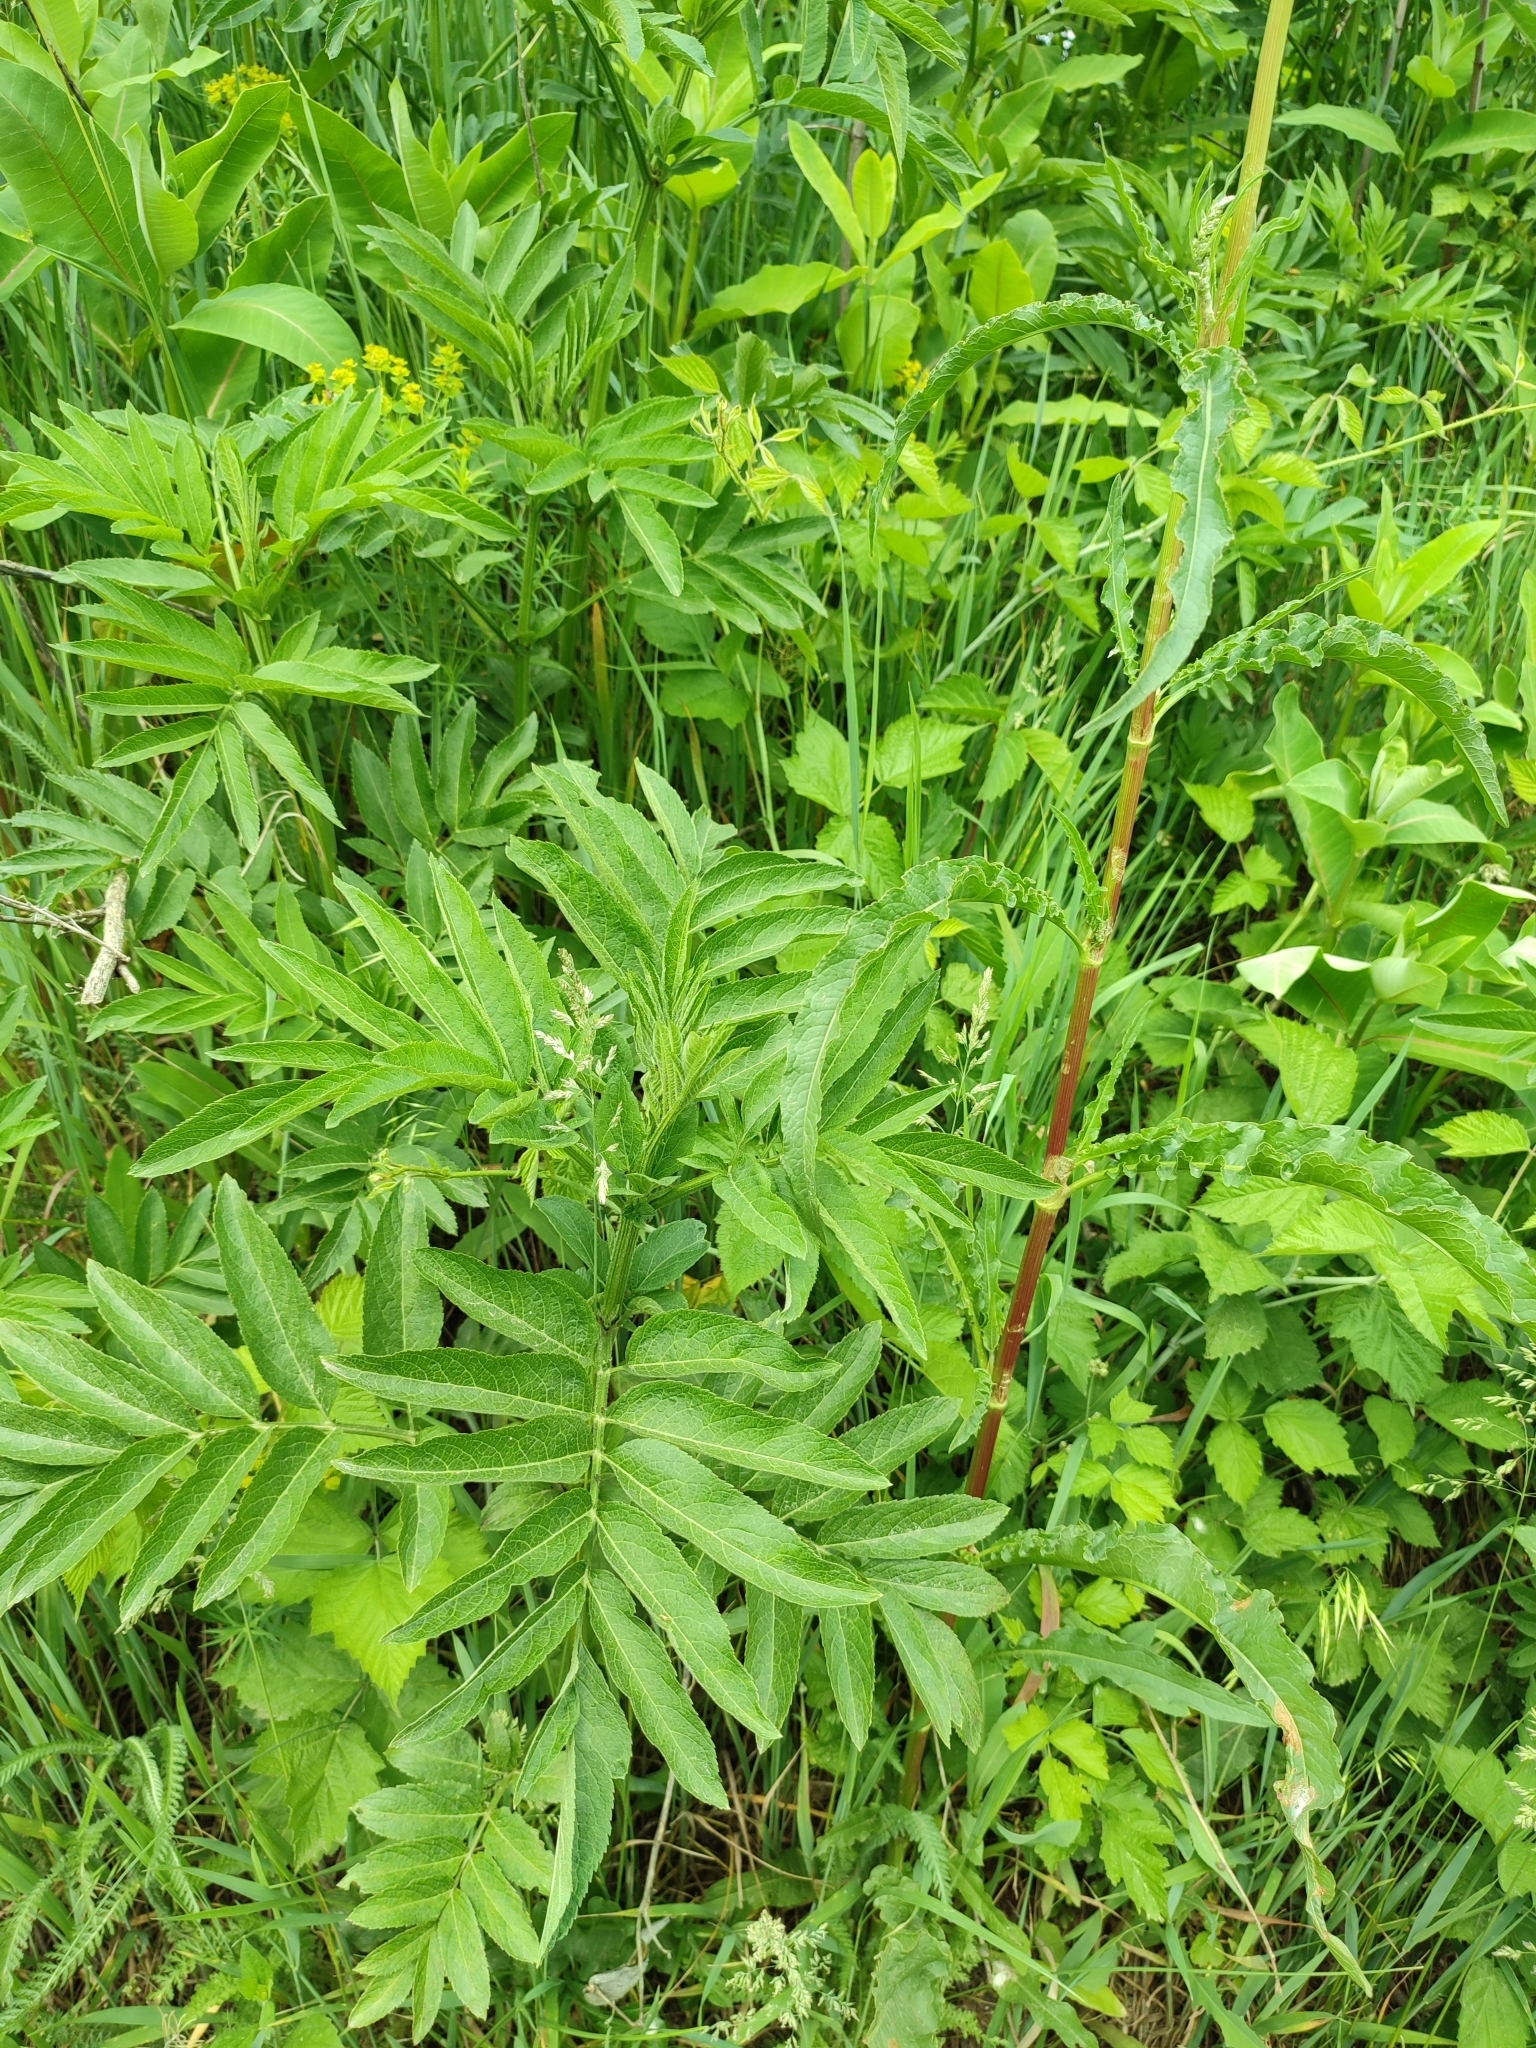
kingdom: Plantae
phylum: Tracheophyta
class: Magnoliopsida
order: Dipsacales
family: Viburnaceae
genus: Sambucus
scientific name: Sambucus ebulus
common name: Dwarf elder
